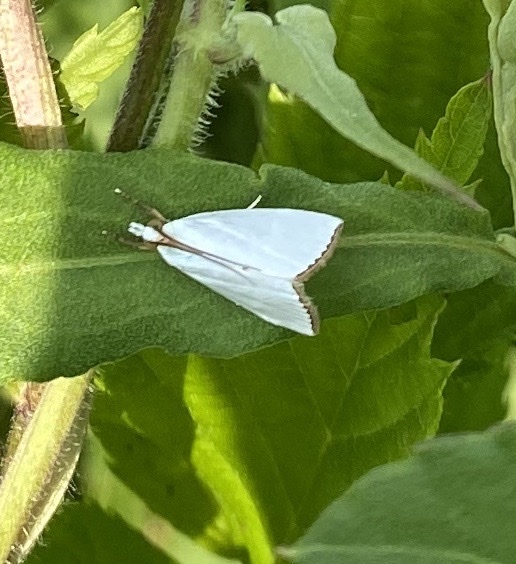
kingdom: Animalia
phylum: Arthropoda
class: Insecta
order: Lepidoptera
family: Crambidae
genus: Argyria
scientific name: Argyria nivalis
